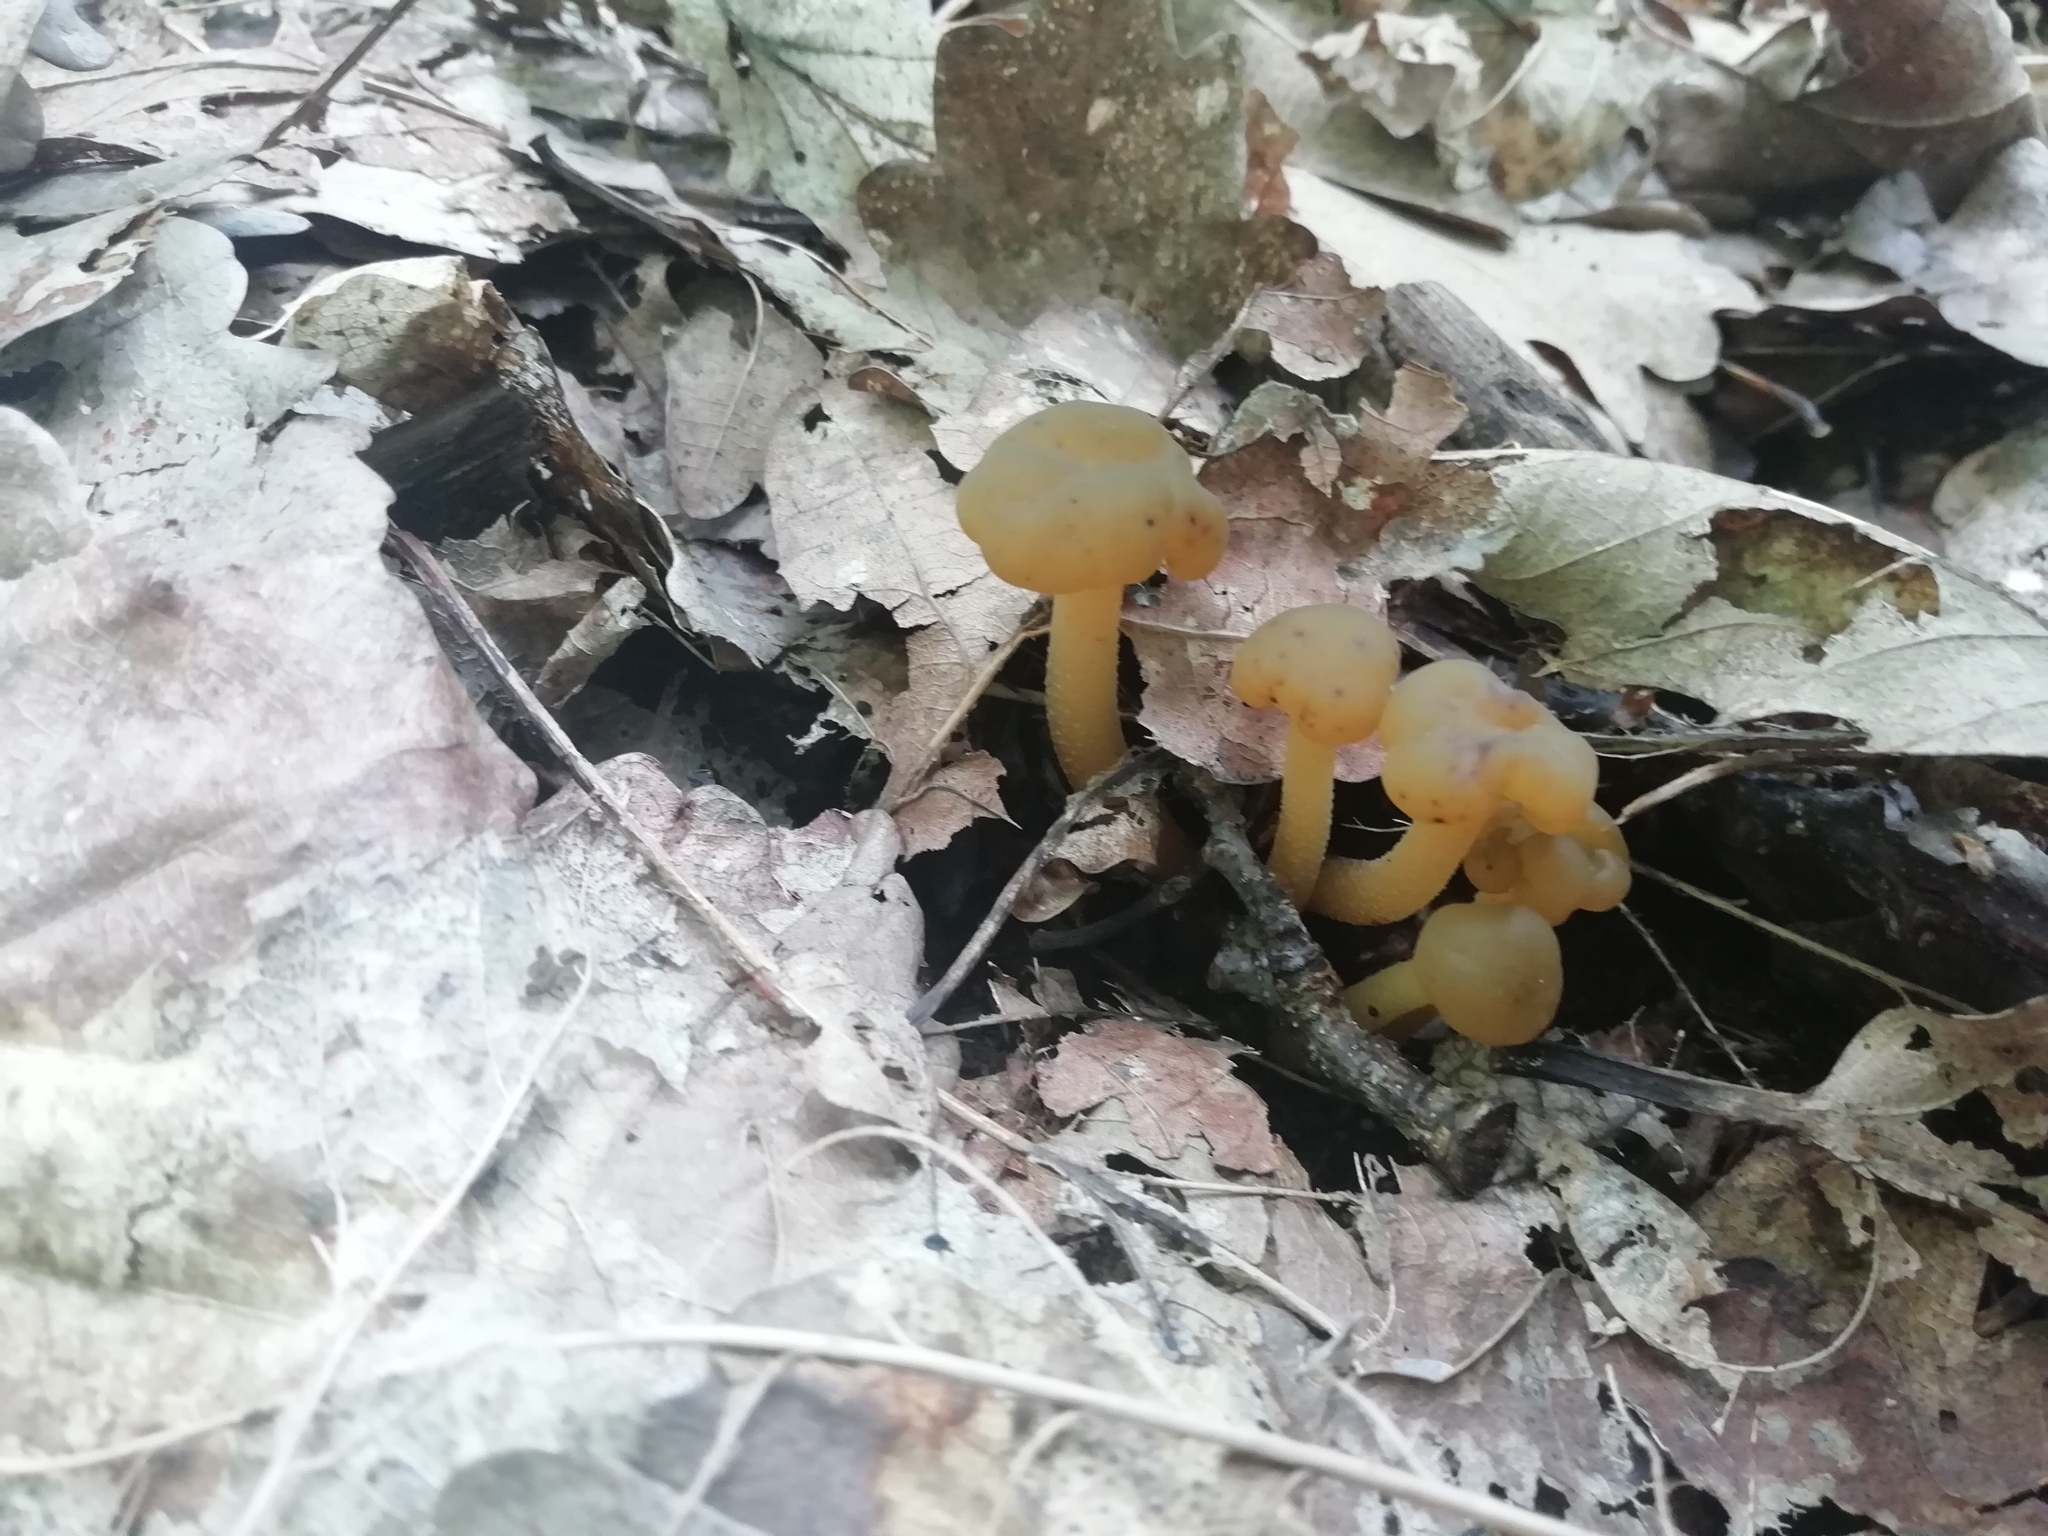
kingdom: Fungi
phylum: Ascomycota
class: Leotiomycetes
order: Leotiales
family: Leotiaceae
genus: Leotia
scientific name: Leotia lubrica
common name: Jellybaby
